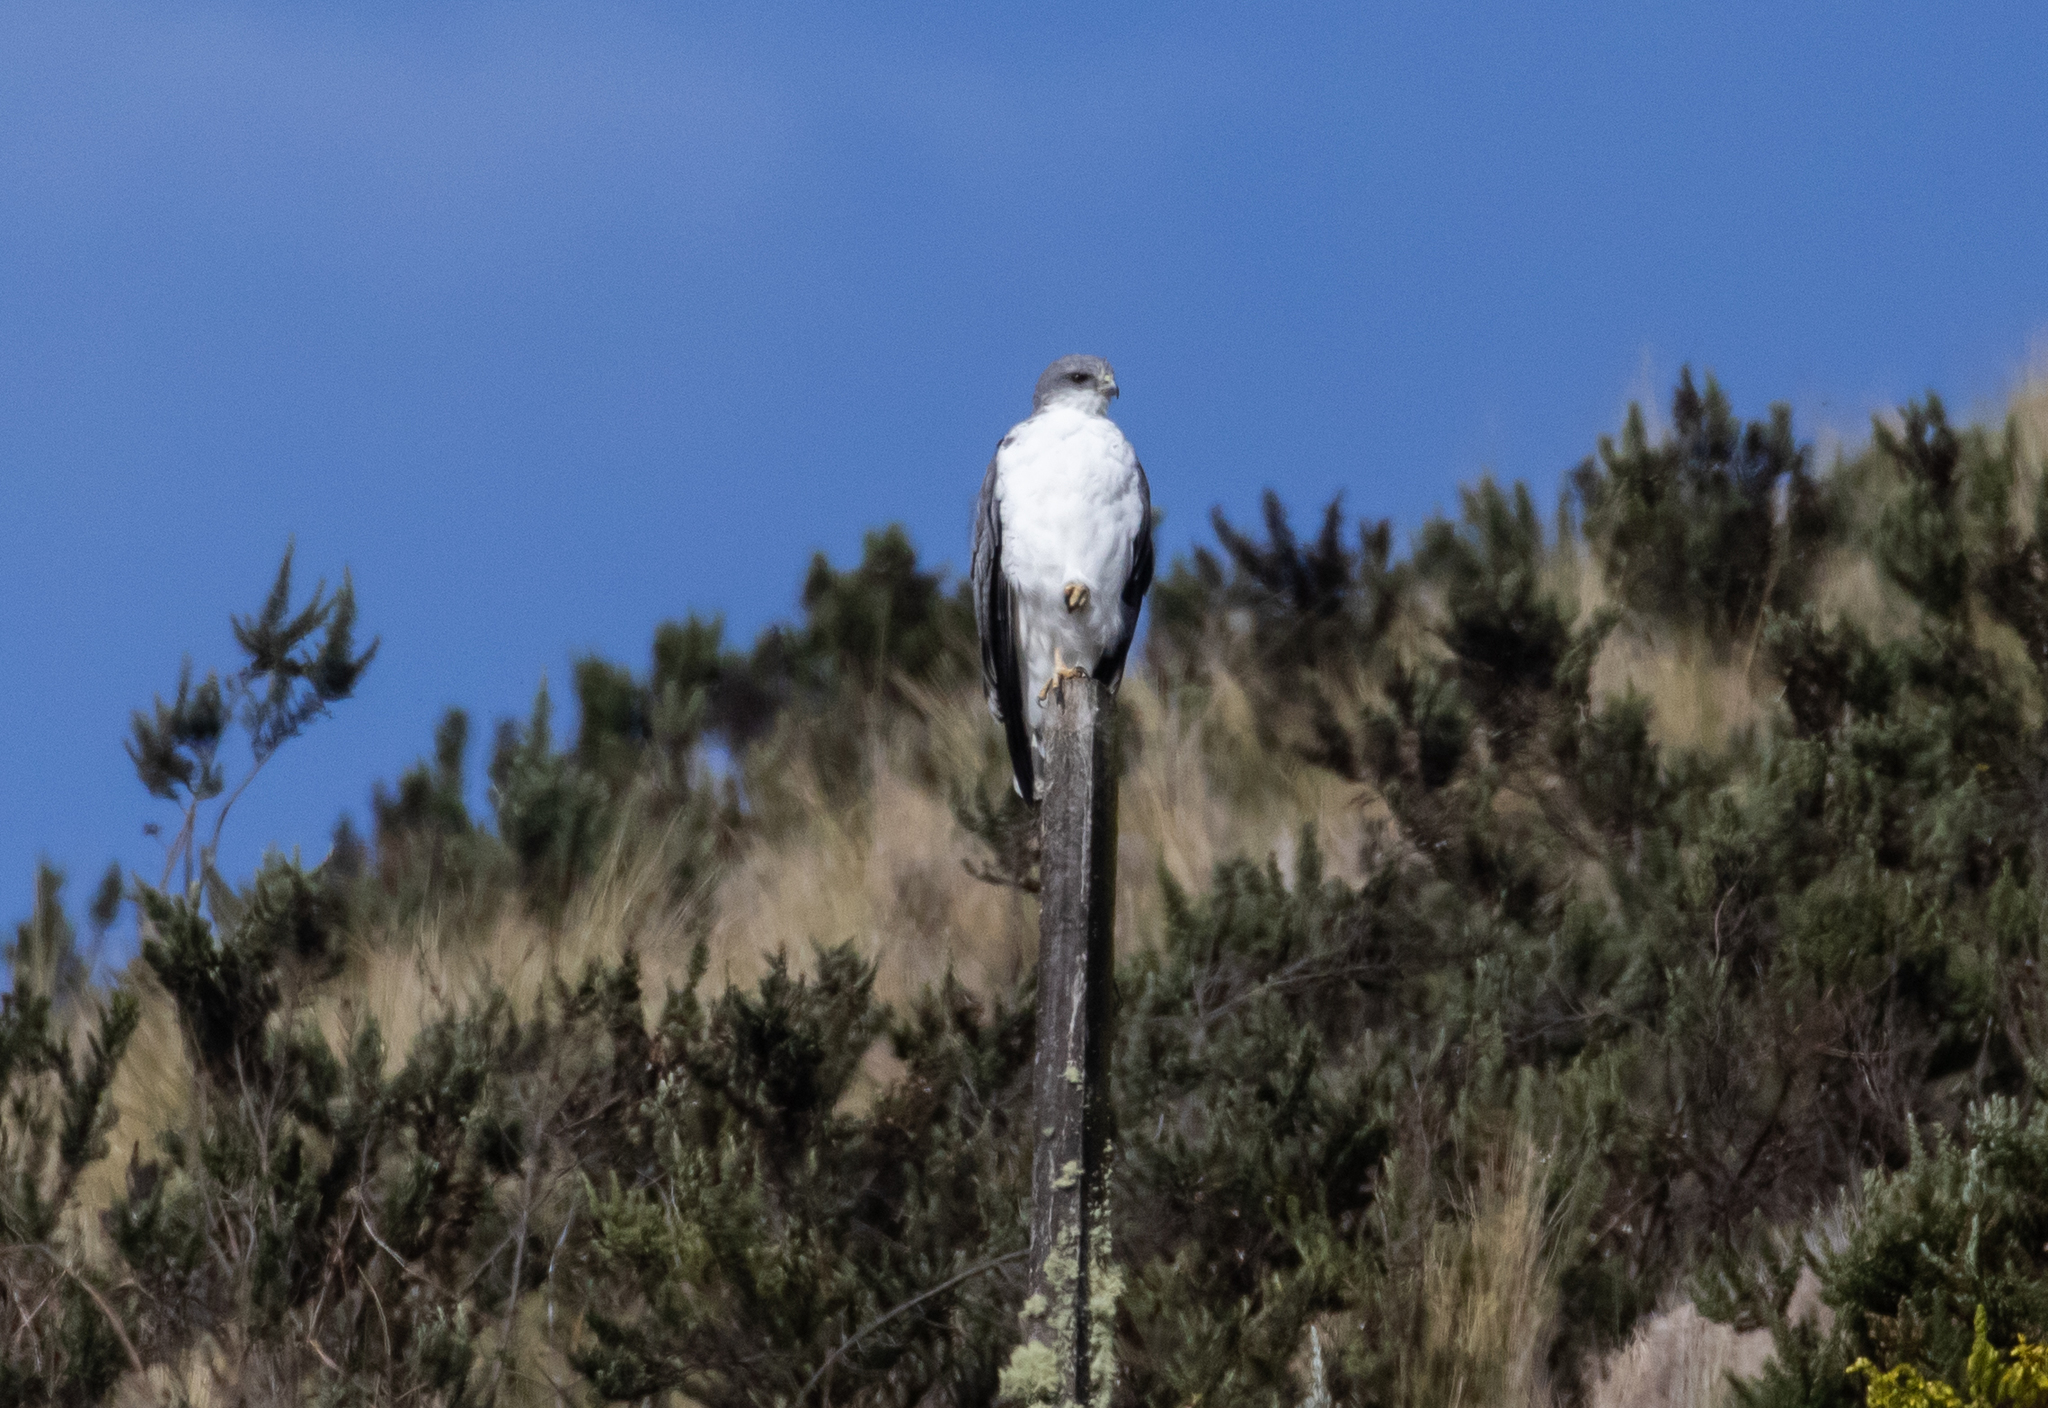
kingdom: Animalia
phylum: Chordata
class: Aves
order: Accipitriformes
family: Accipitridae
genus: Buteo
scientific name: Buteo polyosoma
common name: Variable hawk
